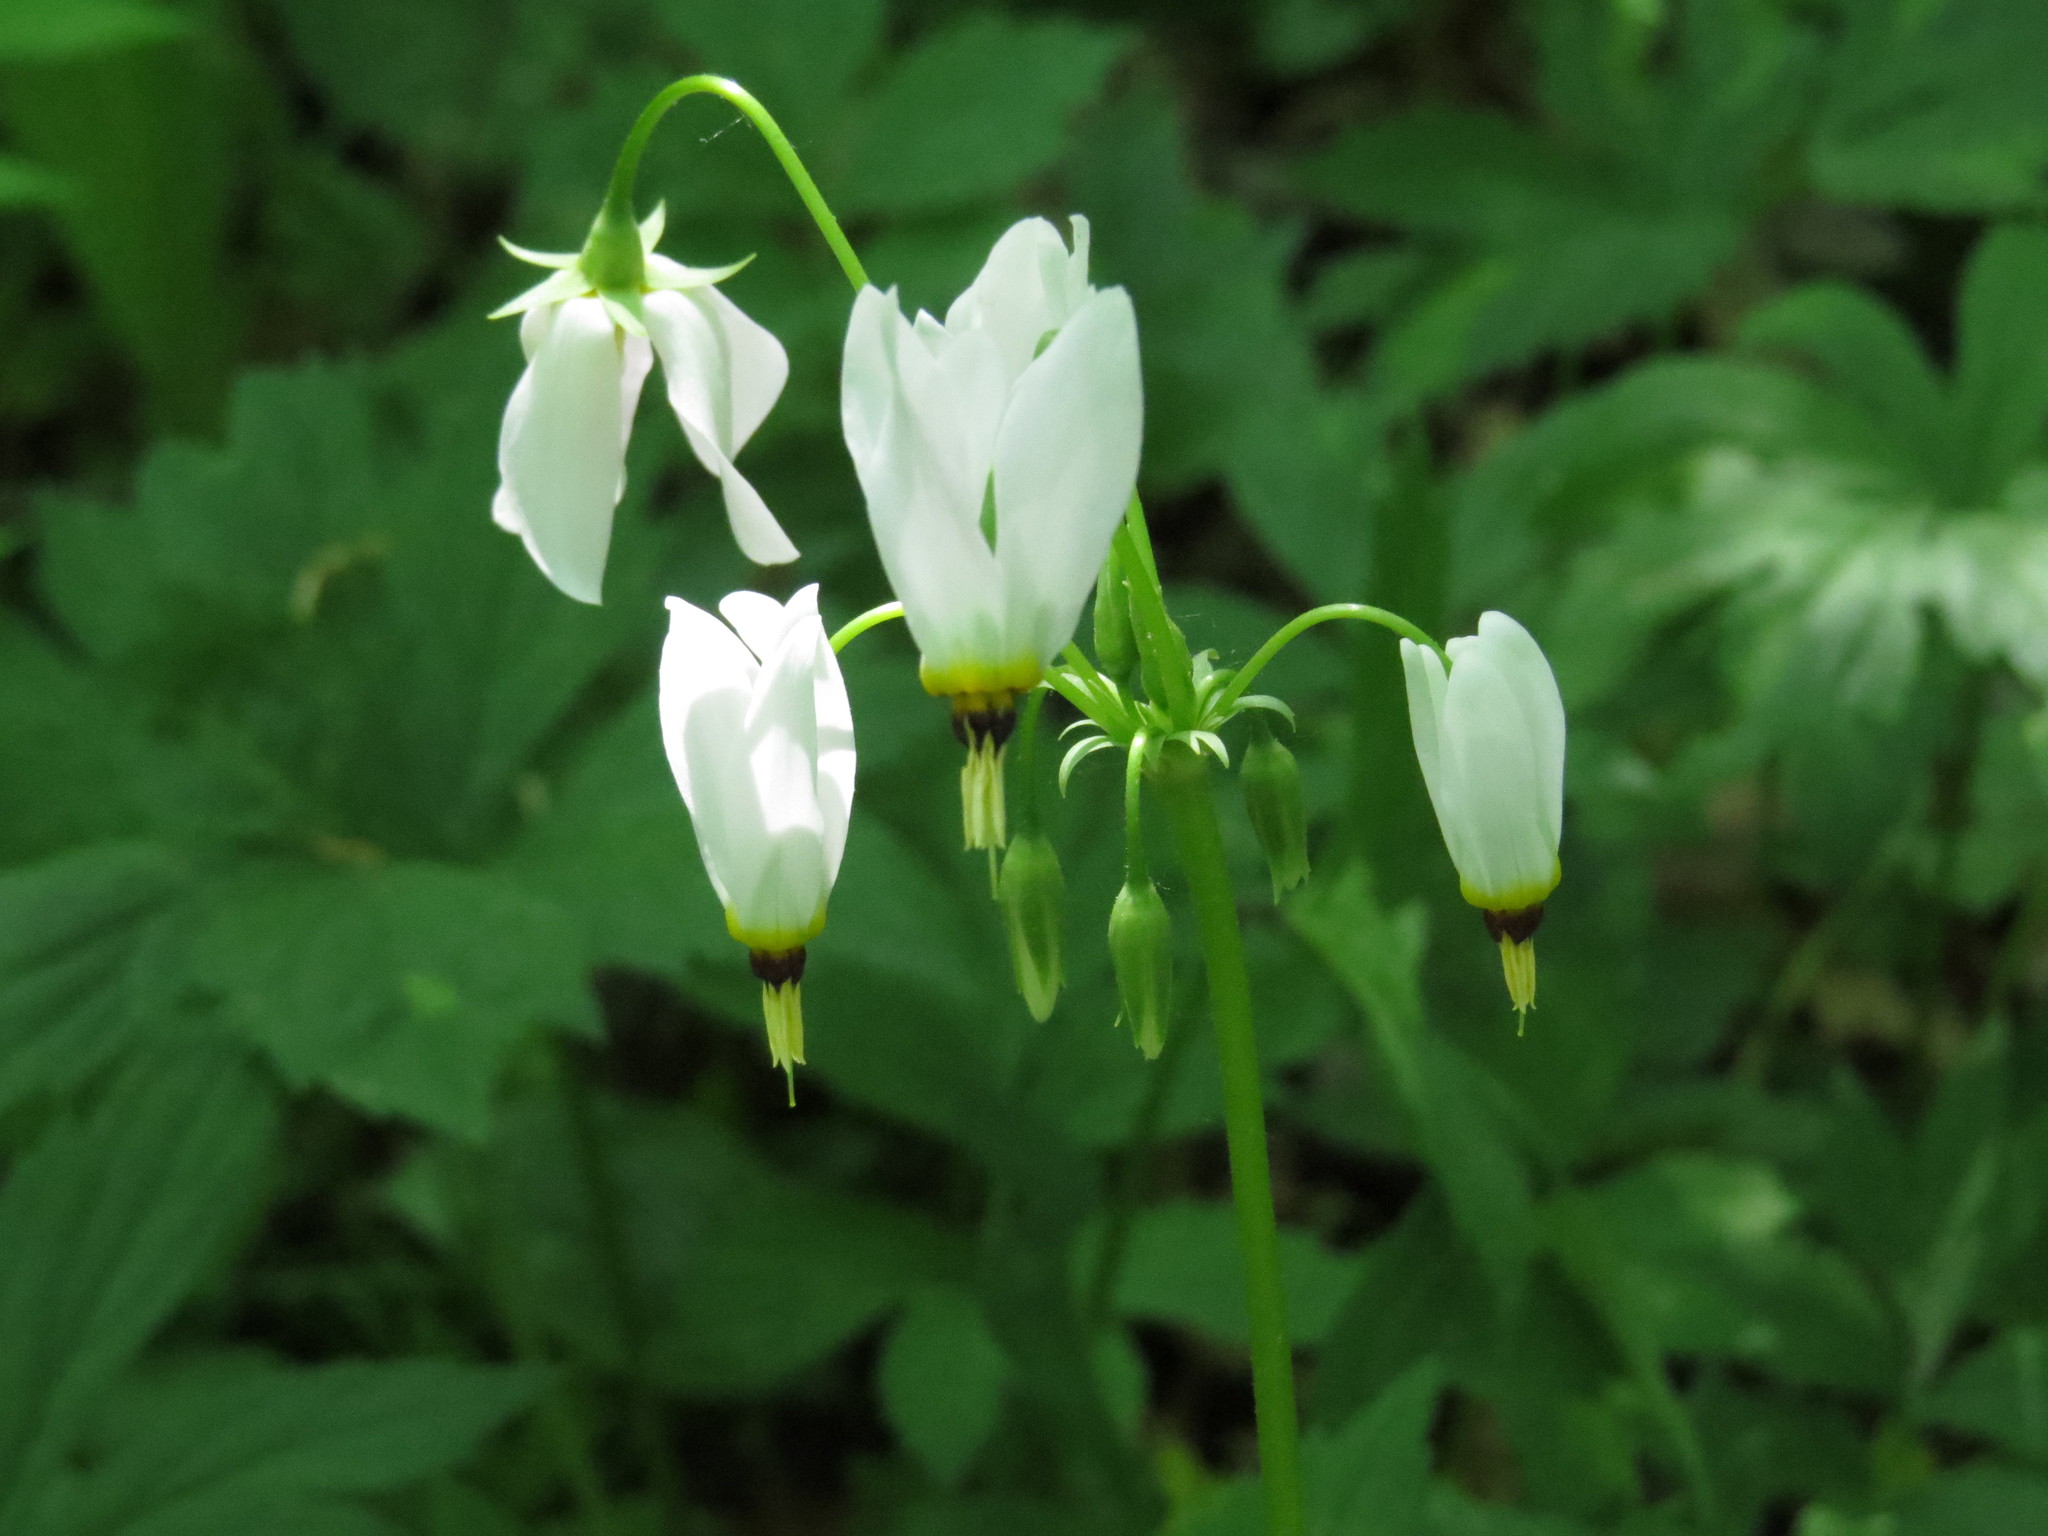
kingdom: Plantae
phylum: Tracheophyta
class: Magnoliopsida
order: Ericales
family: Primulaceae
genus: Dodecatheon
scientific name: Dodecatheon meadia
